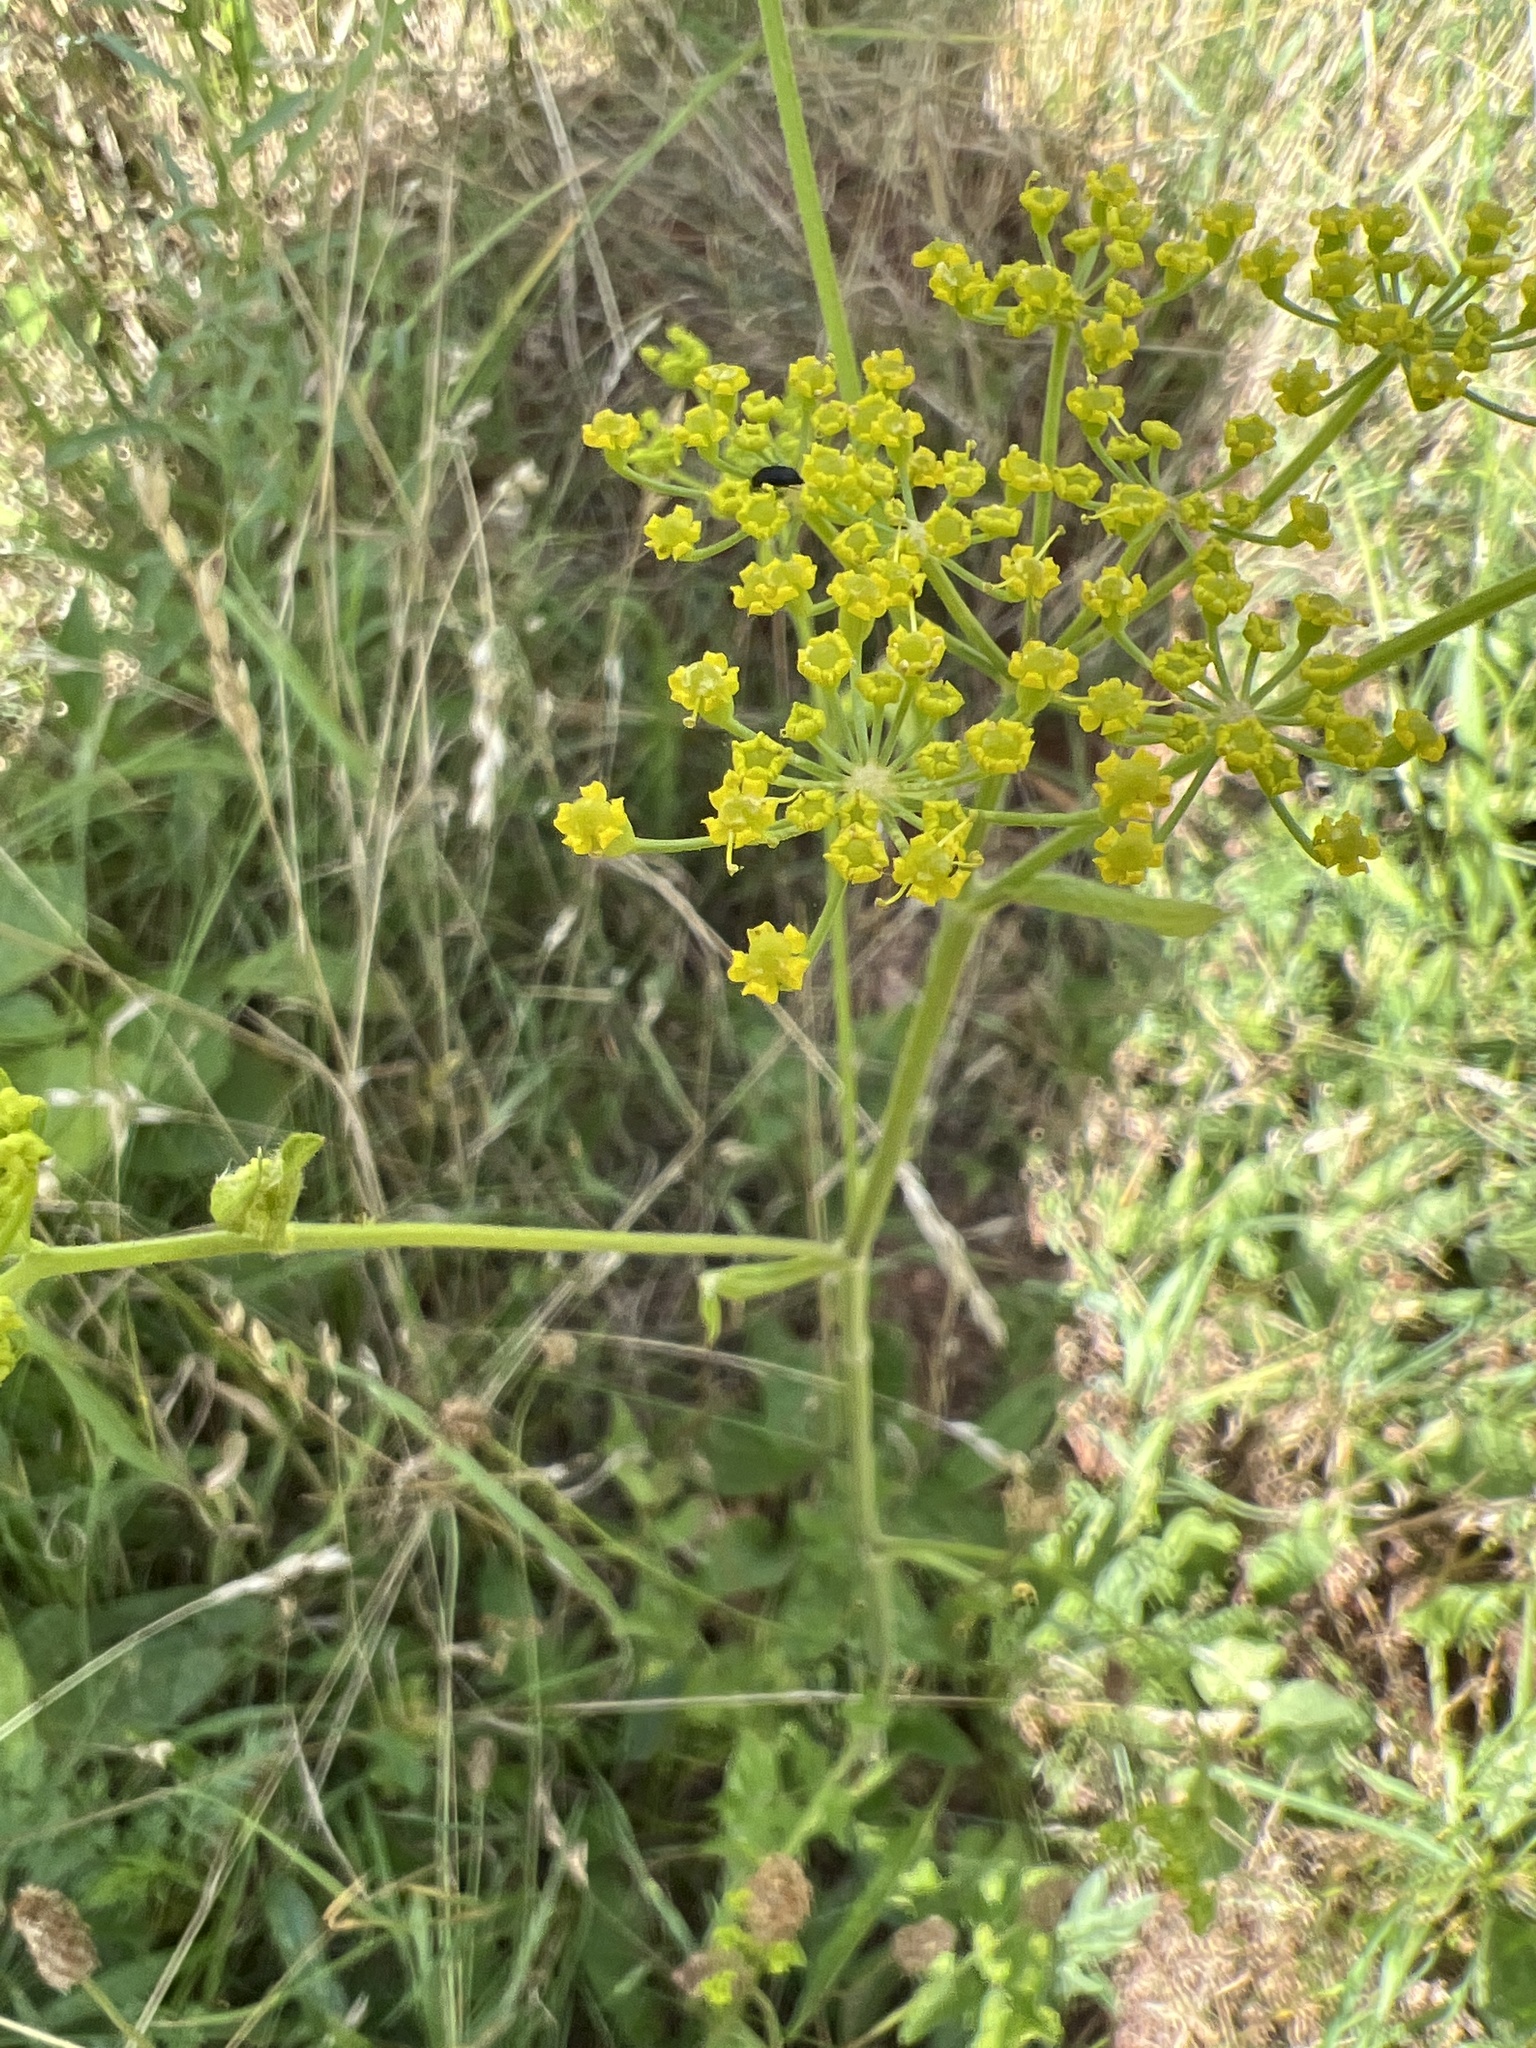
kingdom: Plantae
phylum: Tracheophyta
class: Magnoliopsida
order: Apiales
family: Apiaceae
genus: Pastinaca
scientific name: Pastinaca sativa
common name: Wild parsnip
